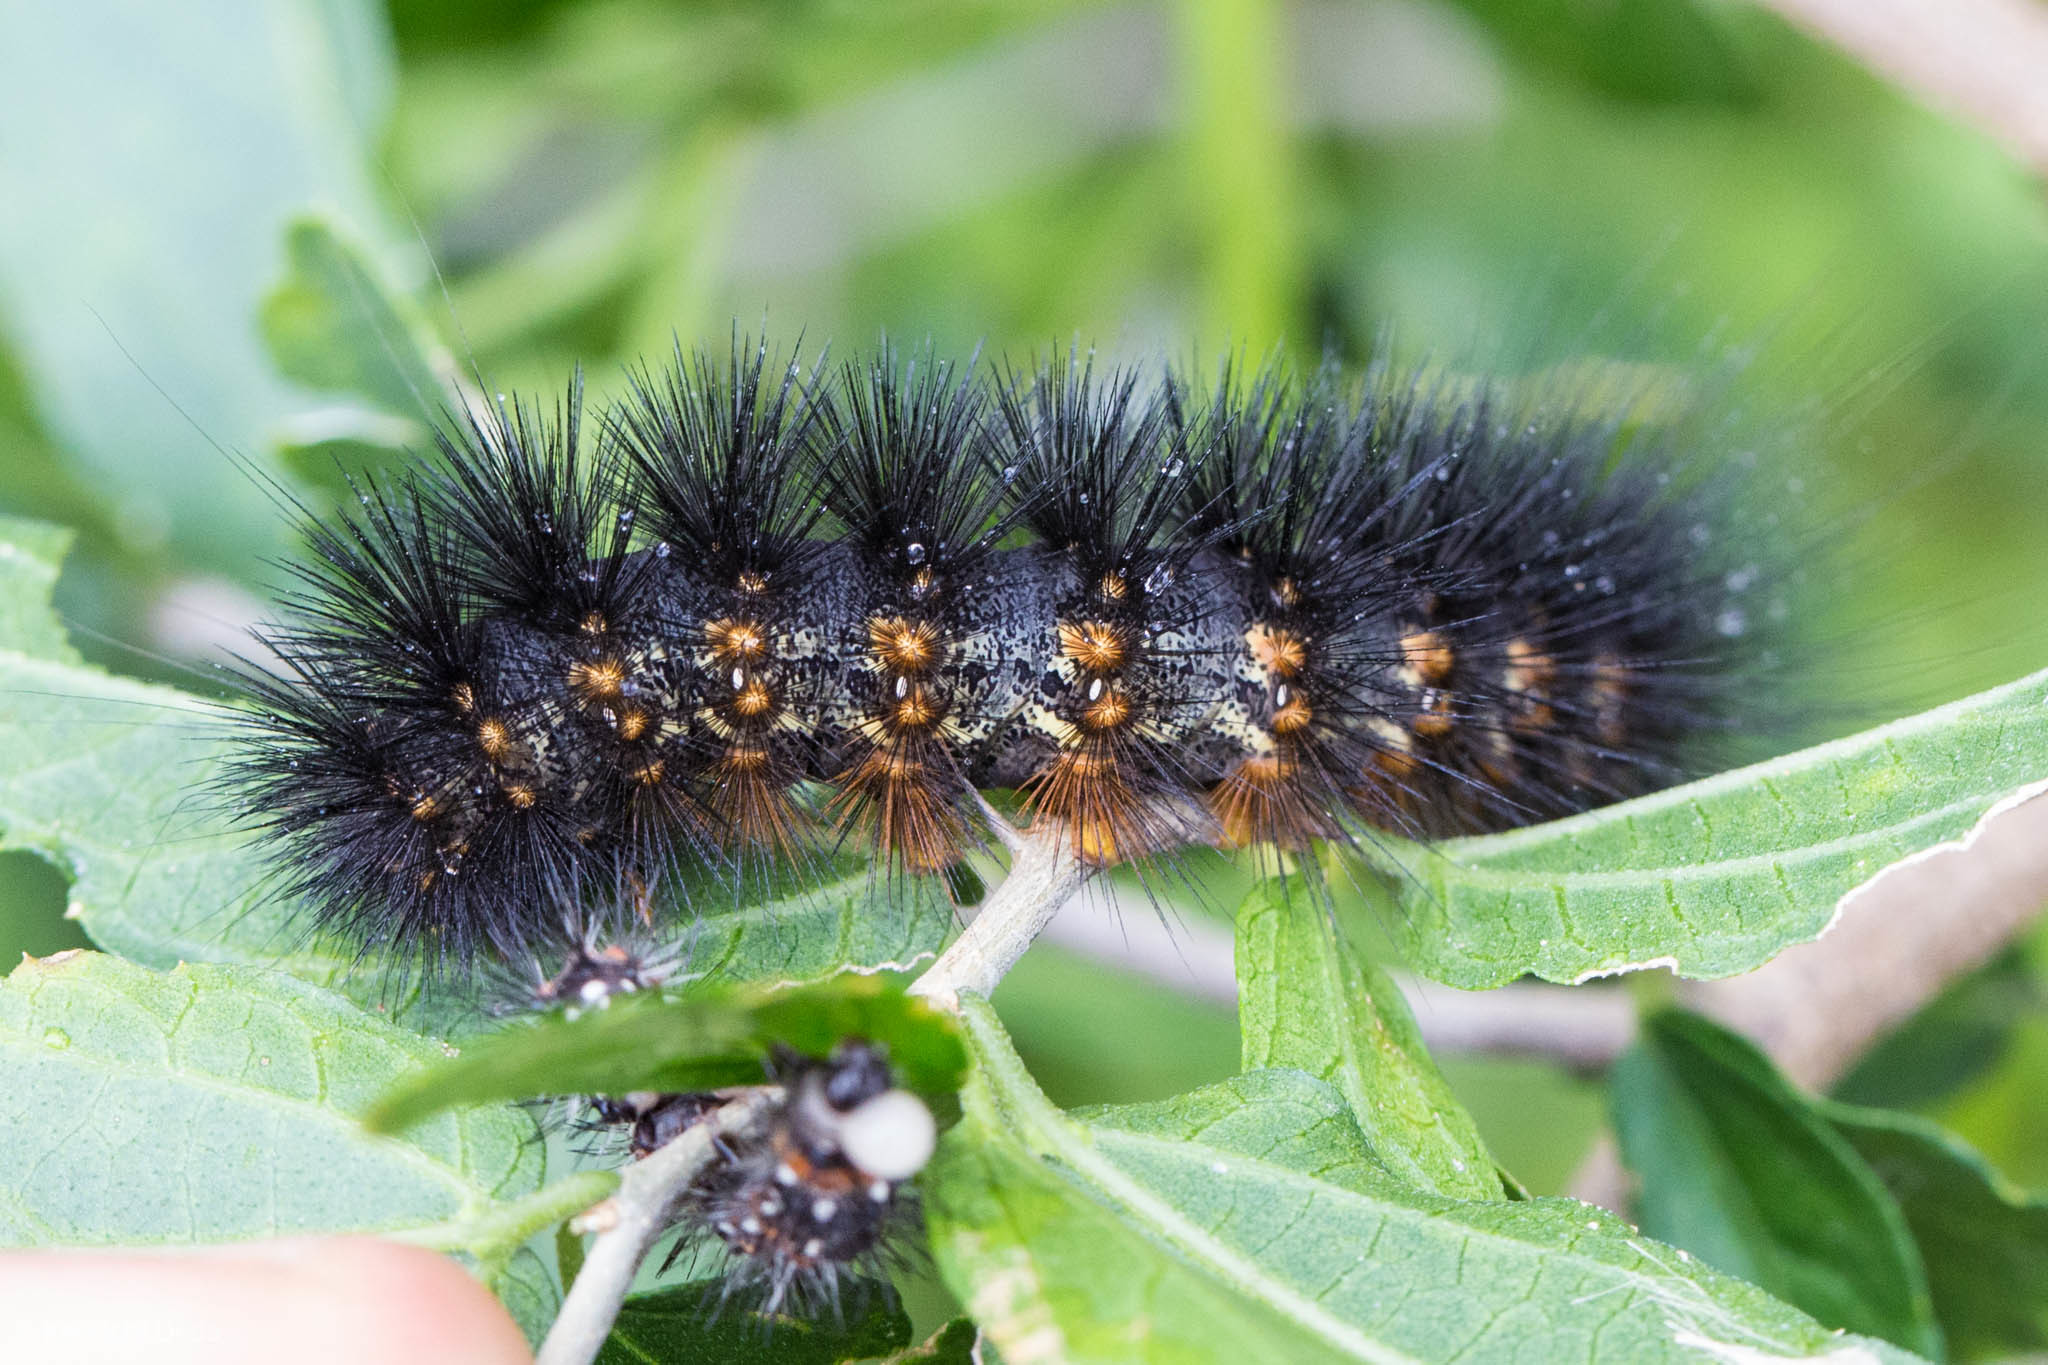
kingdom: Animalia
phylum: Arthropoda
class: Insecta
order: Lepidoptera
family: Erebidae
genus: Estigmene
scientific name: Estigmene acrea
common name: Salt marsh moth
